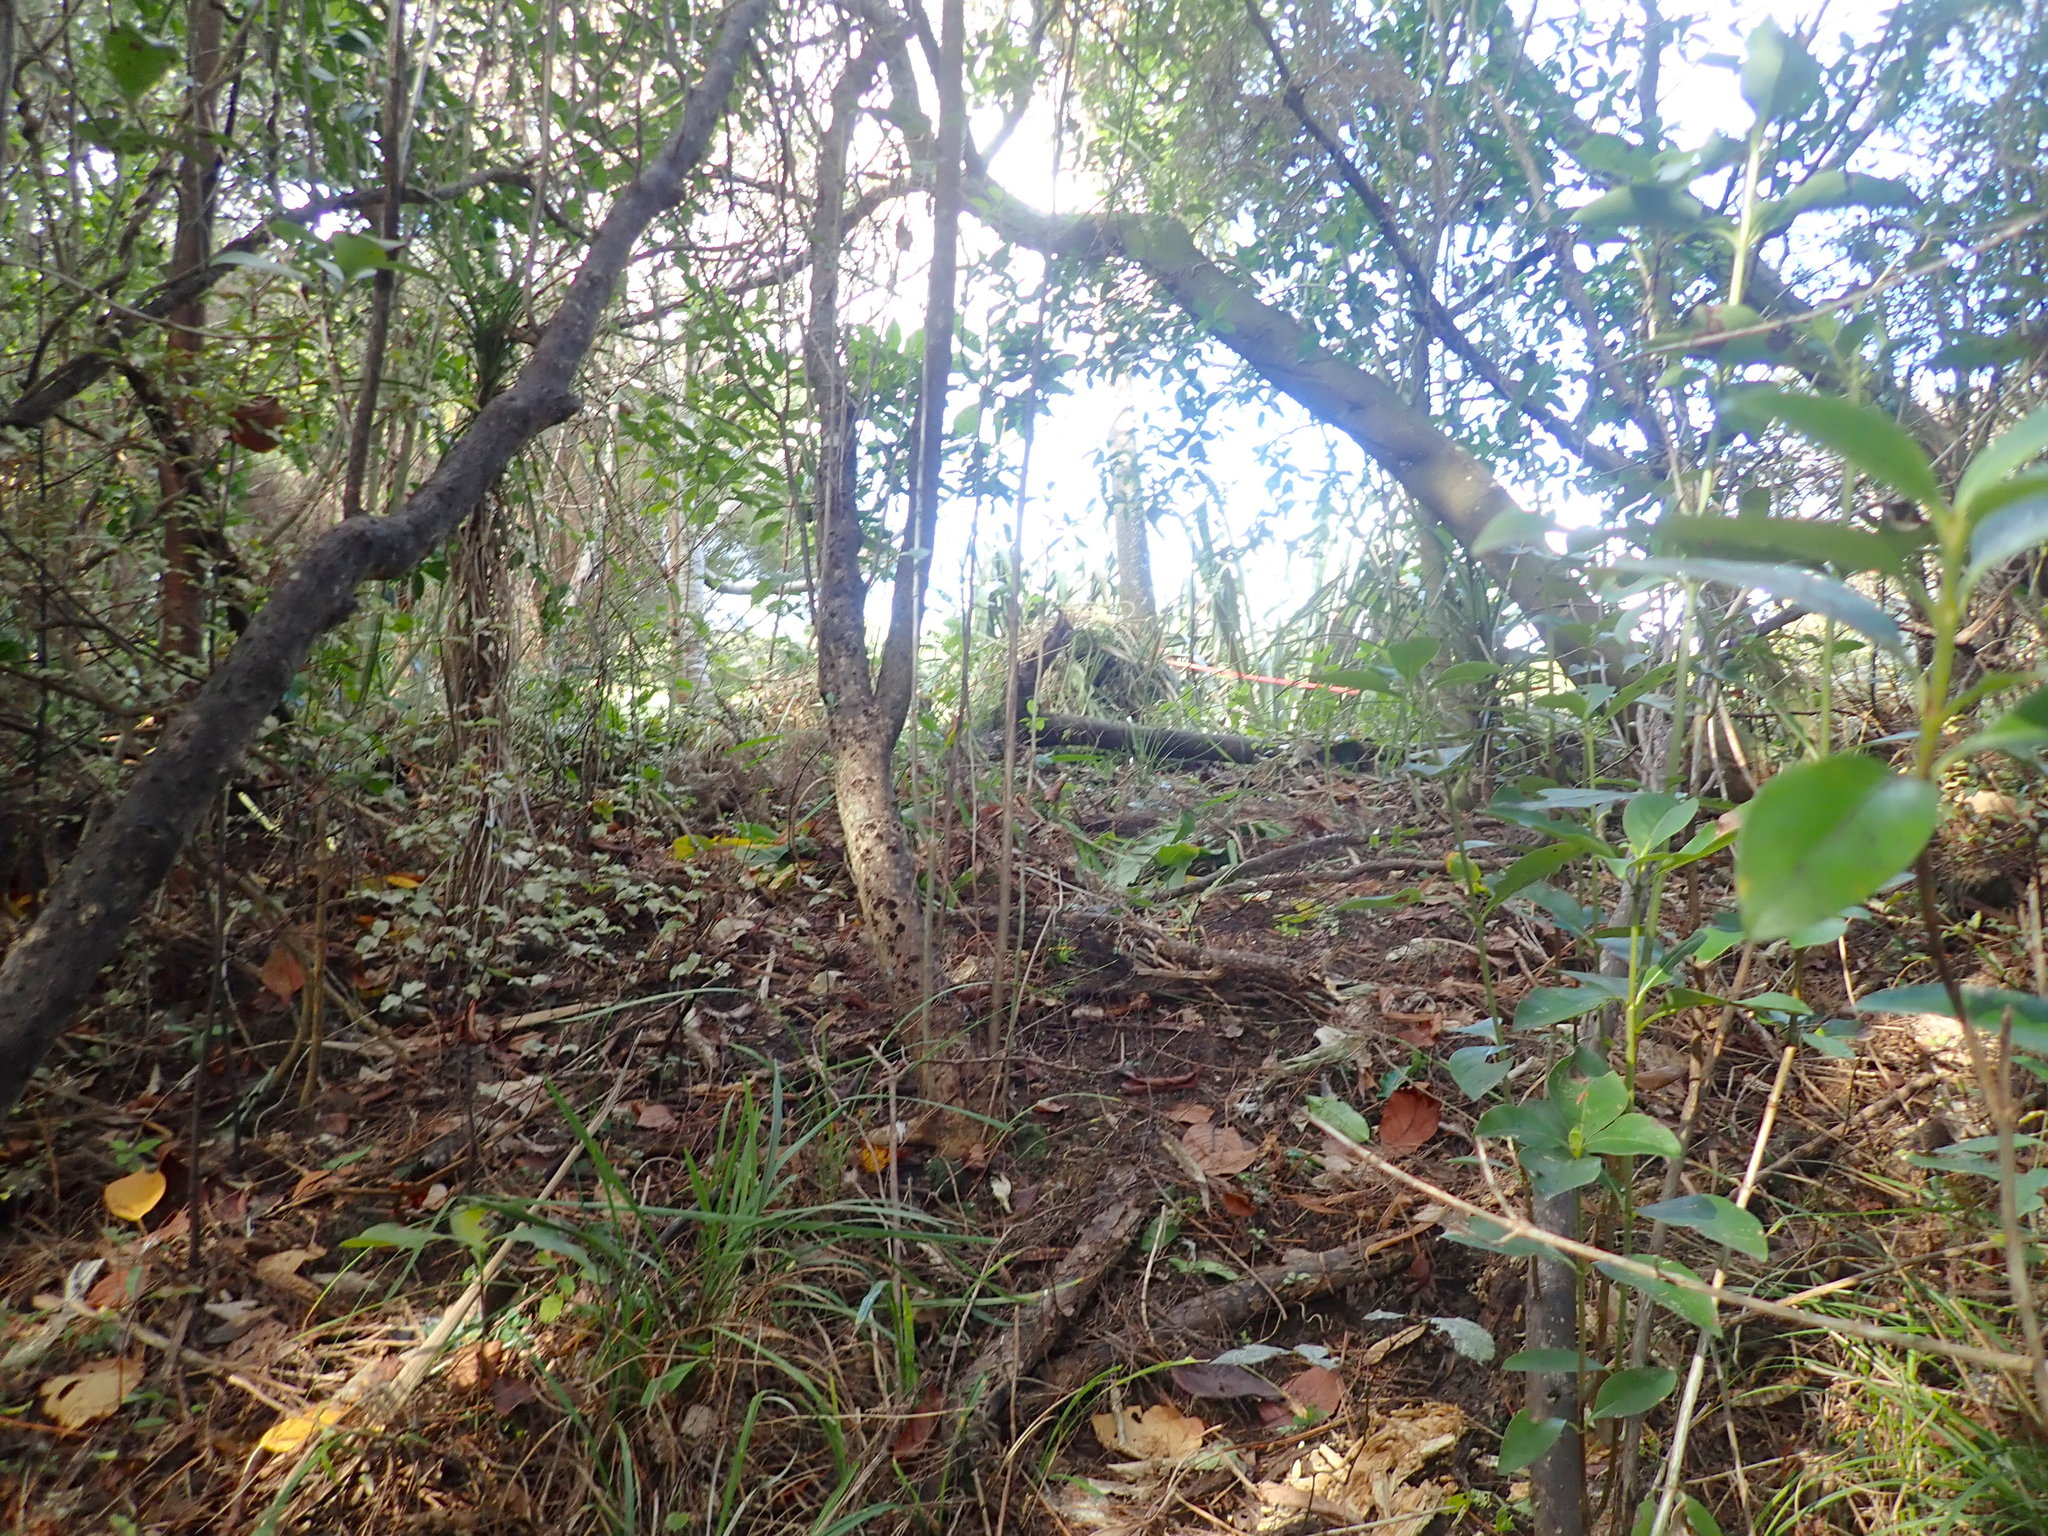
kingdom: Plantae
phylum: Tracheophyta
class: Magnoliopsida
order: Gentianales
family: Rubiaceae
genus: Coprosma
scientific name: Coprosma robusta
